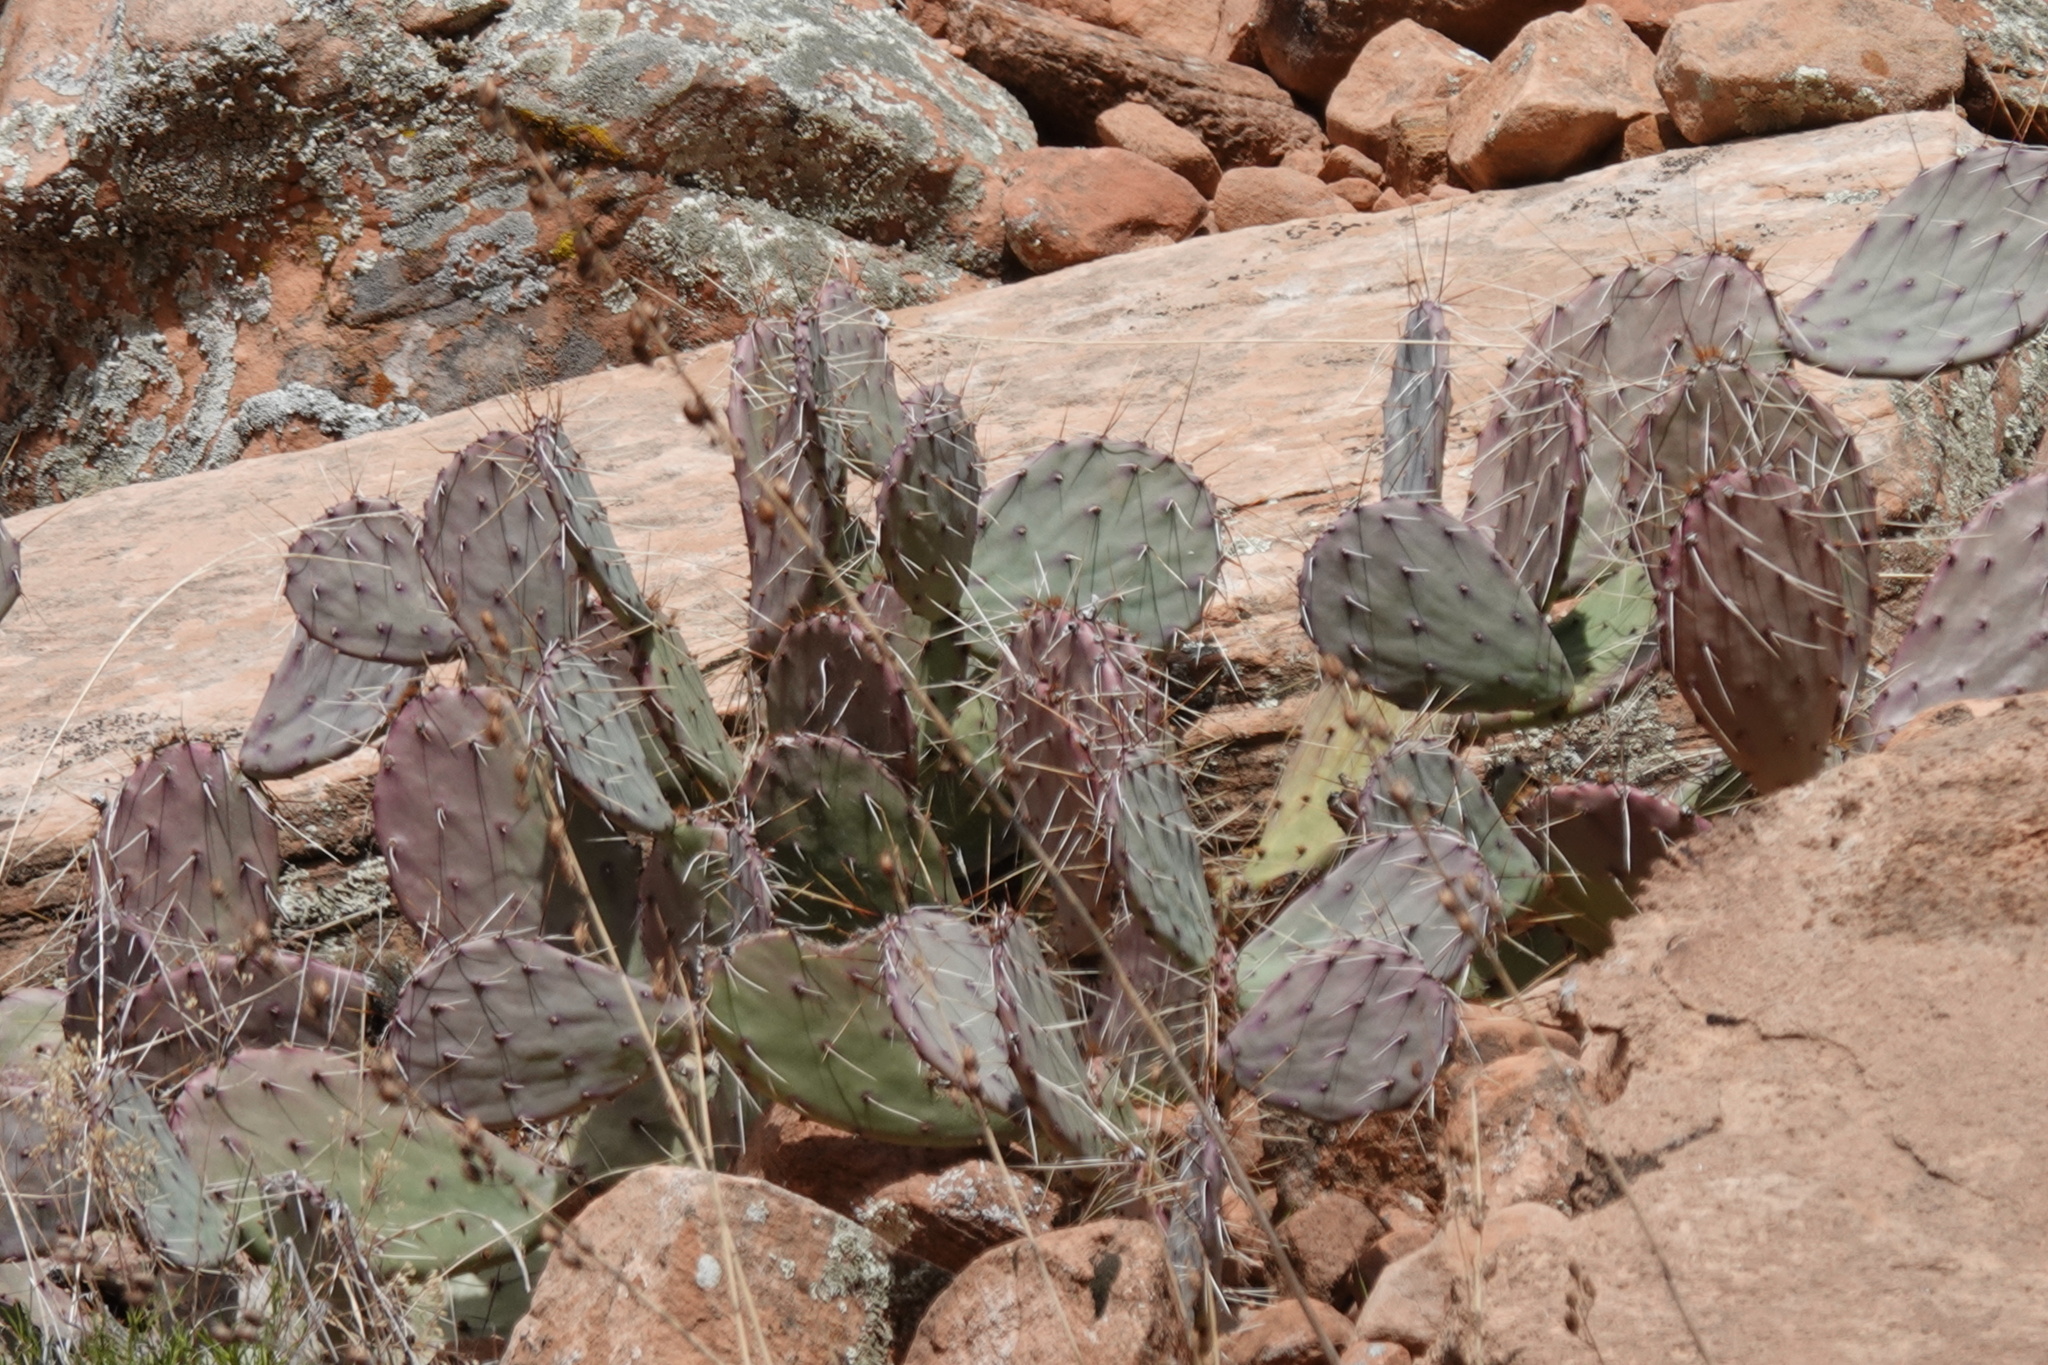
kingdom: Plantae
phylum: Tracheophyta
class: Magnoliopsida
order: Caryophyllales
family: Cactaceae
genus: Opuntia
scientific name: Opuntia phaeacantha
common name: New mexico prickly-pear
